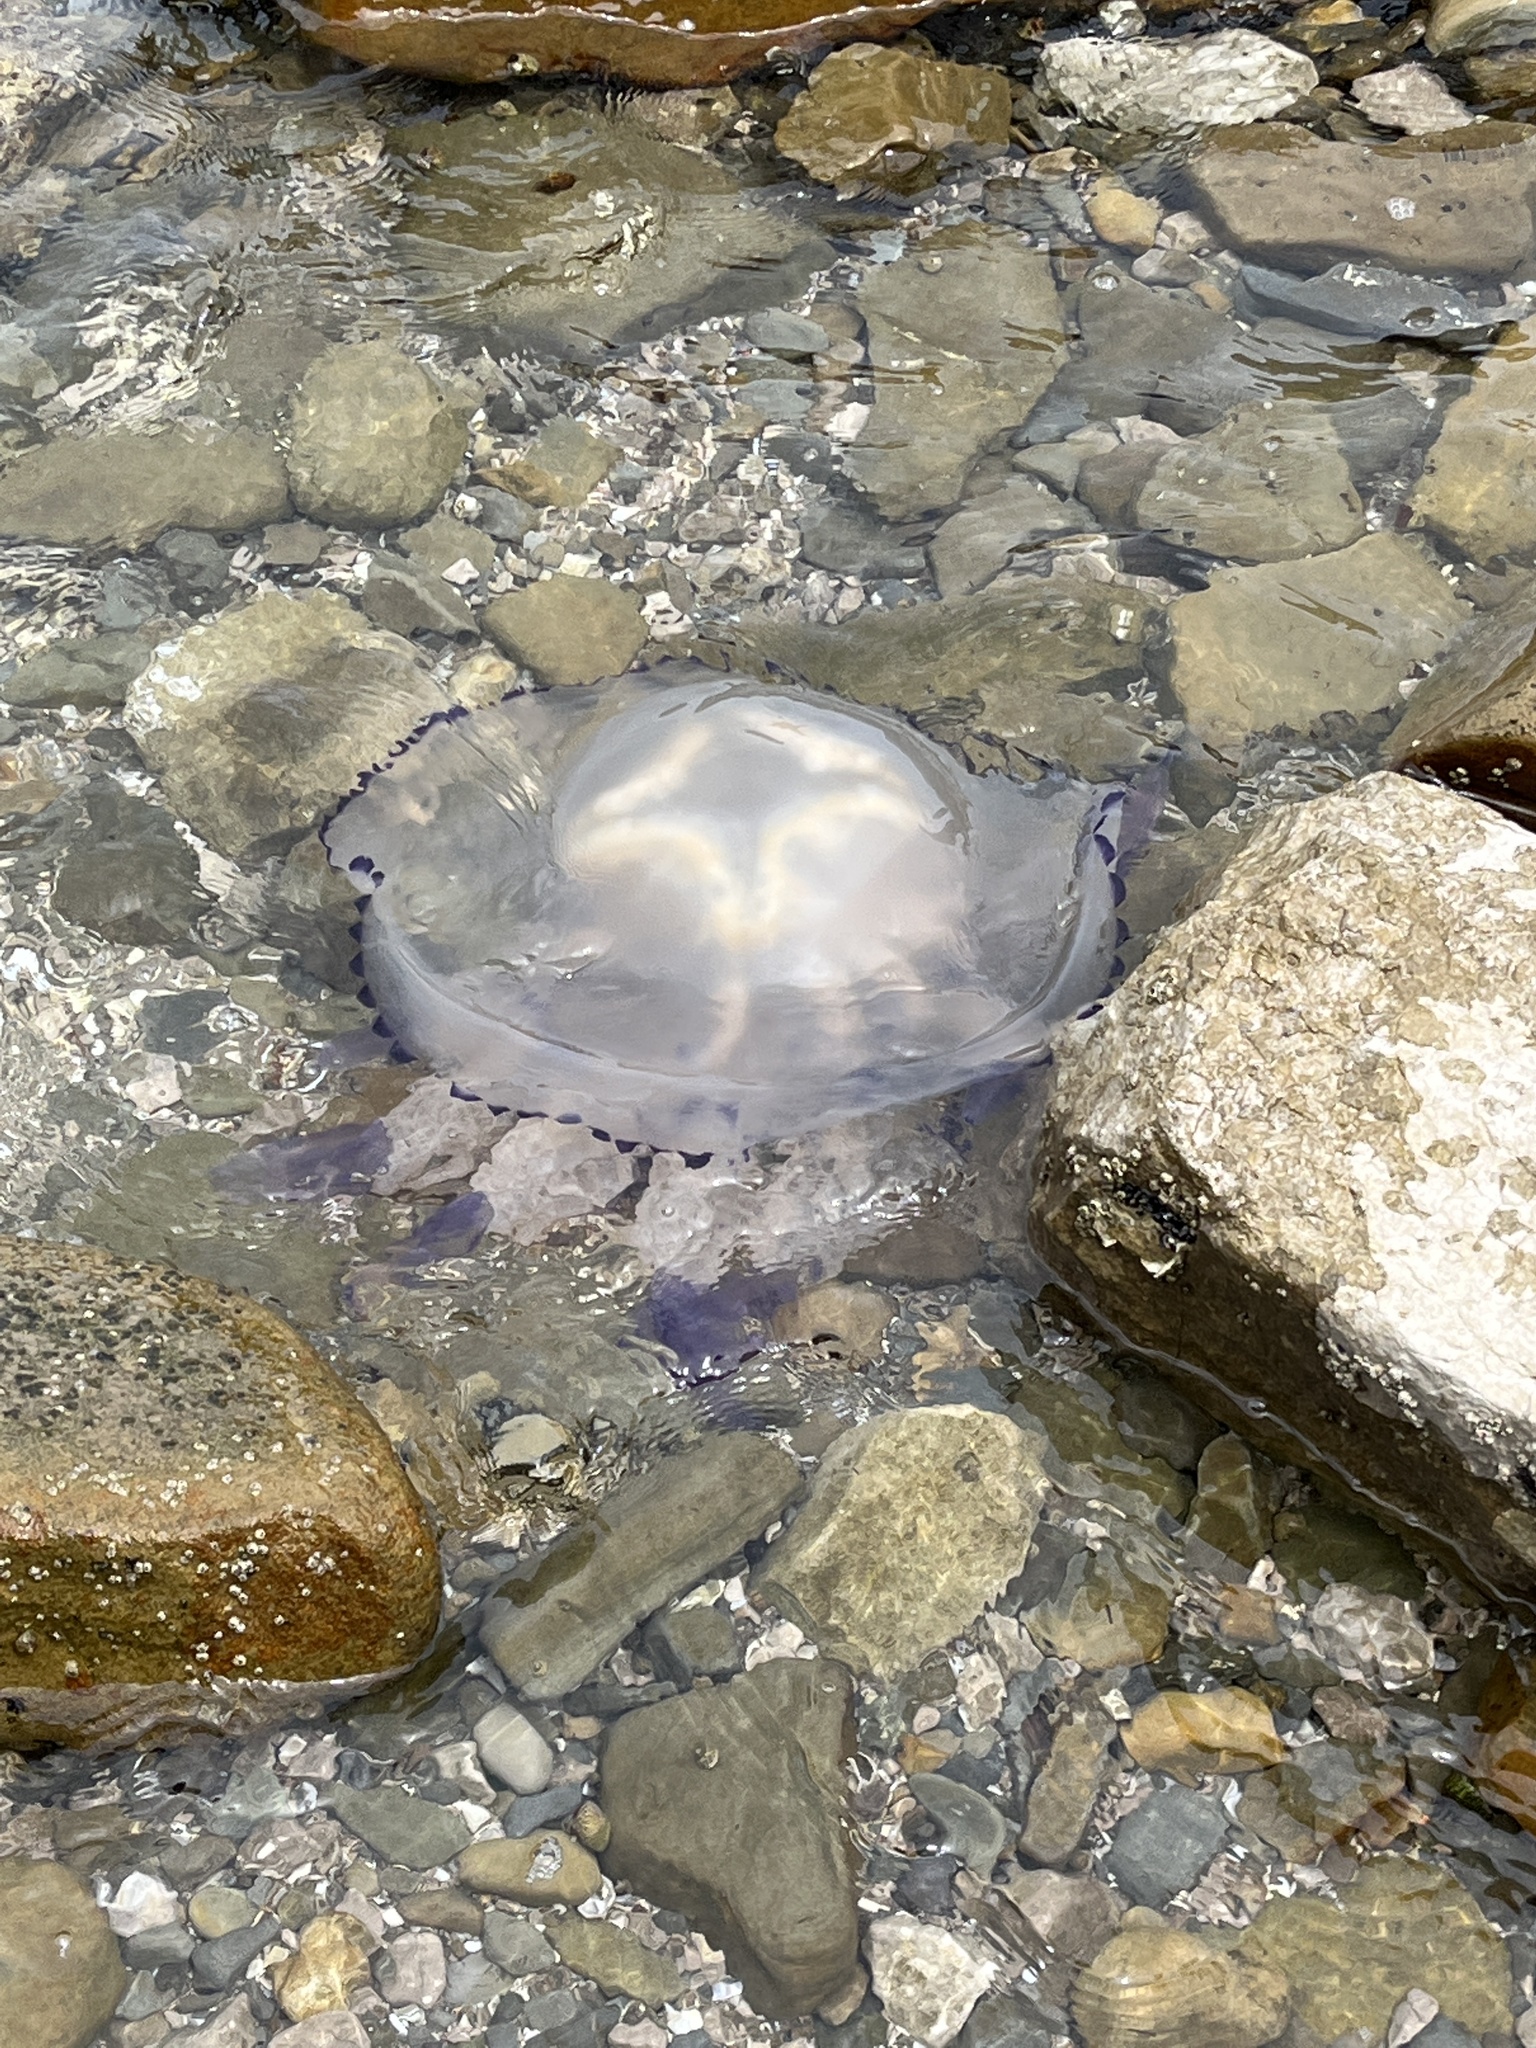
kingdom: Animalia
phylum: Cnidaria
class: Scyphozoa
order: Rhizostomeae
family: Rhizostomatidae
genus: Rhizostoma
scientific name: Rhizostoma pulmo
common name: Barrel jellyfish
